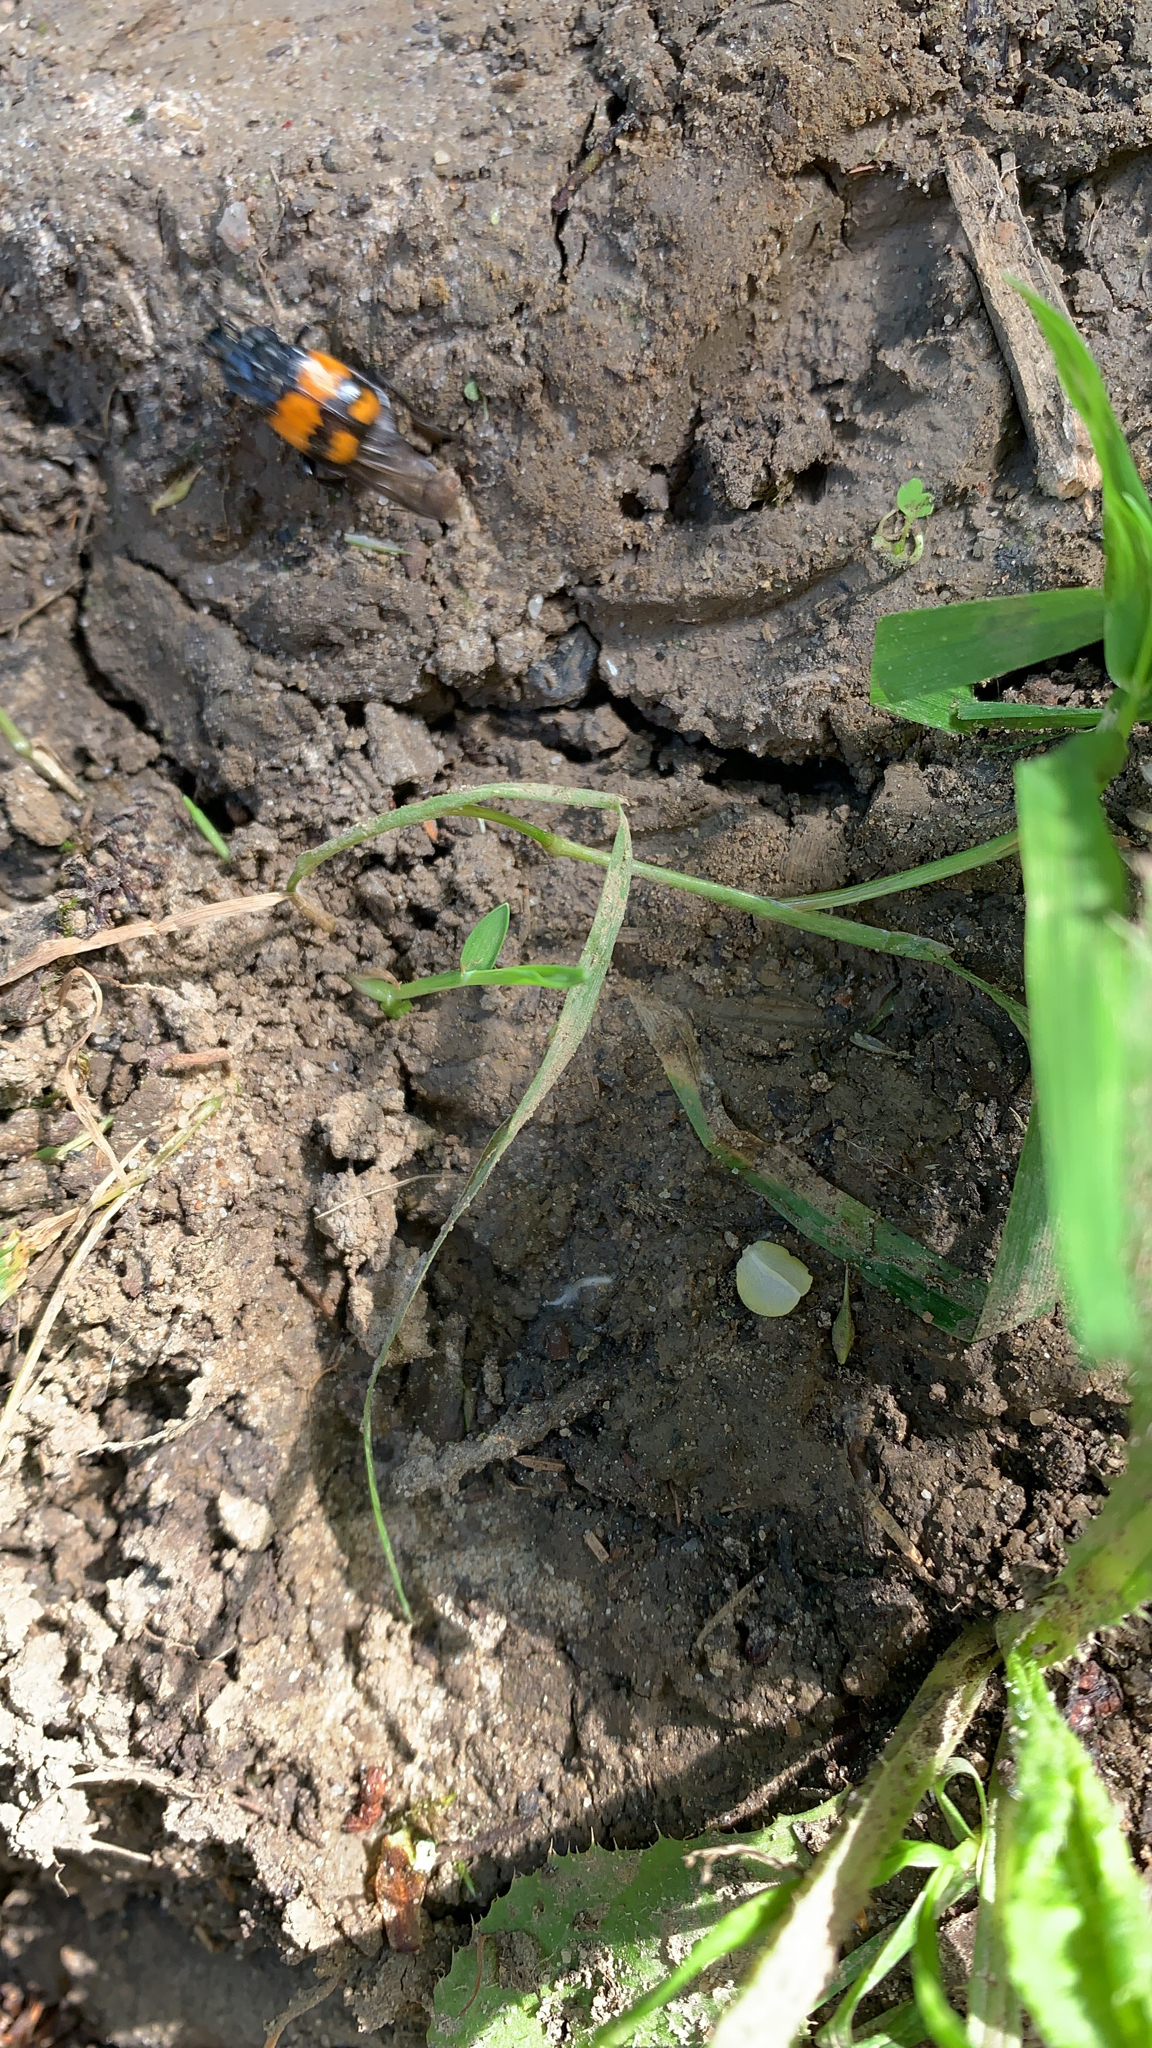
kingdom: Animalia
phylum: Arthropoda
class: Insecta
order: Coleoptera
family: Staphylinidae
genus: Nicrophorus
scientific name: Nicrophorus vespilloides
